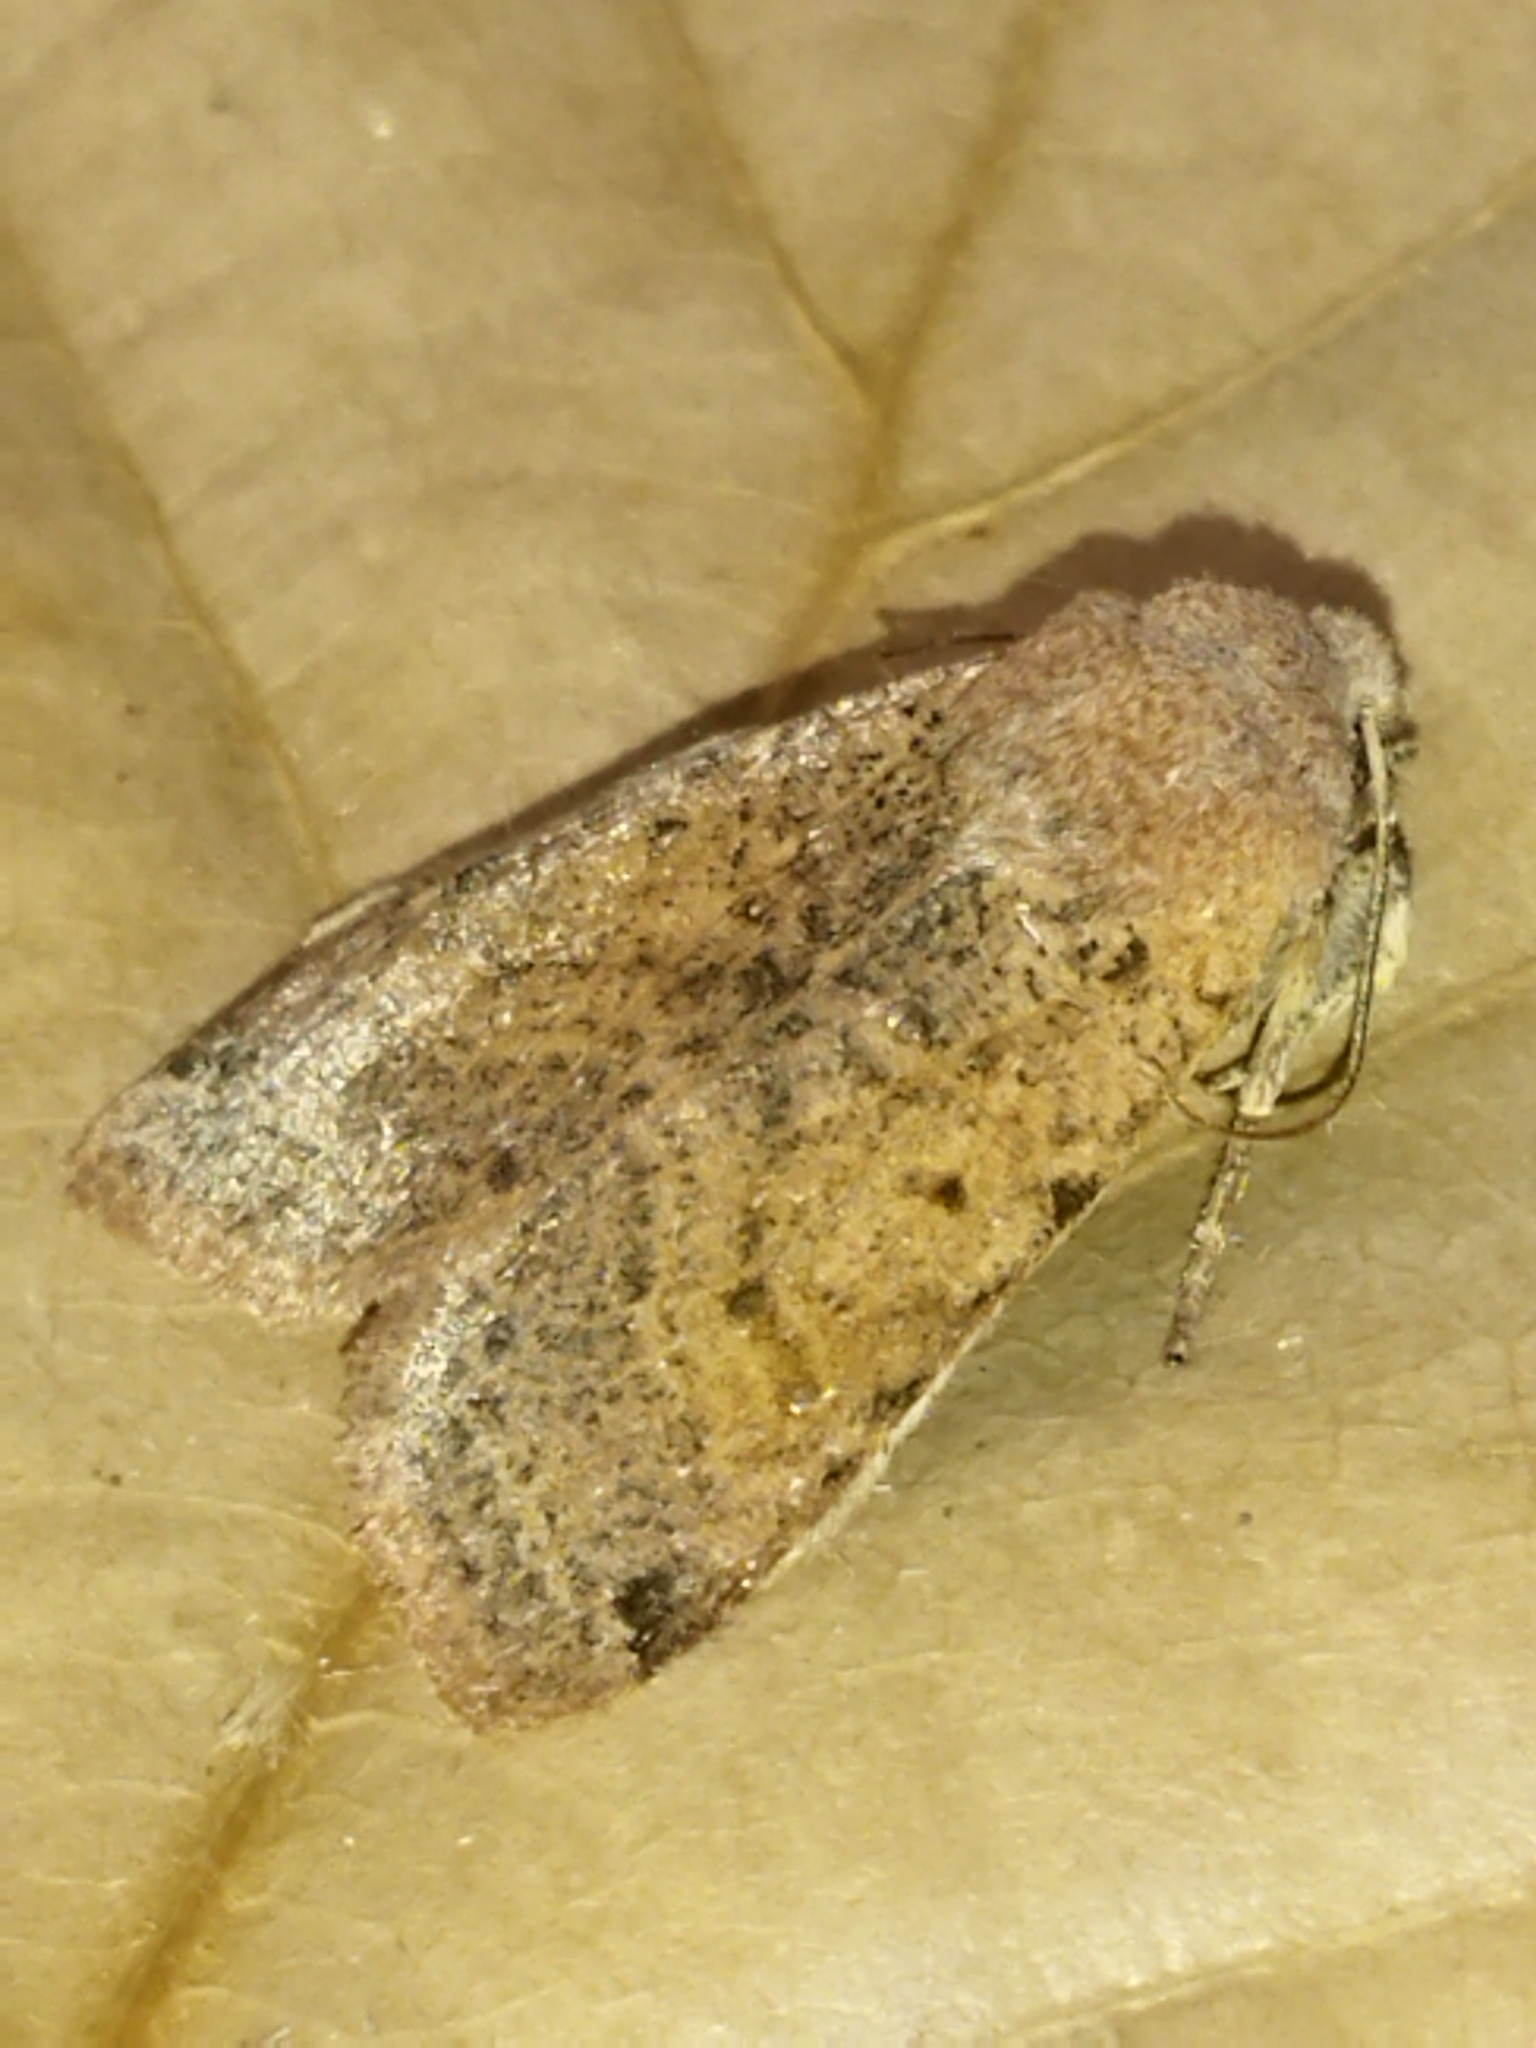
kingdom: Animalia
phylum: Arthropoda
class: Insecta
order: Lepidoptera
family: Noctuidae
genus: Agrochola
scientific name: Agrochola lychnidis
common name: Beaded chestnut
